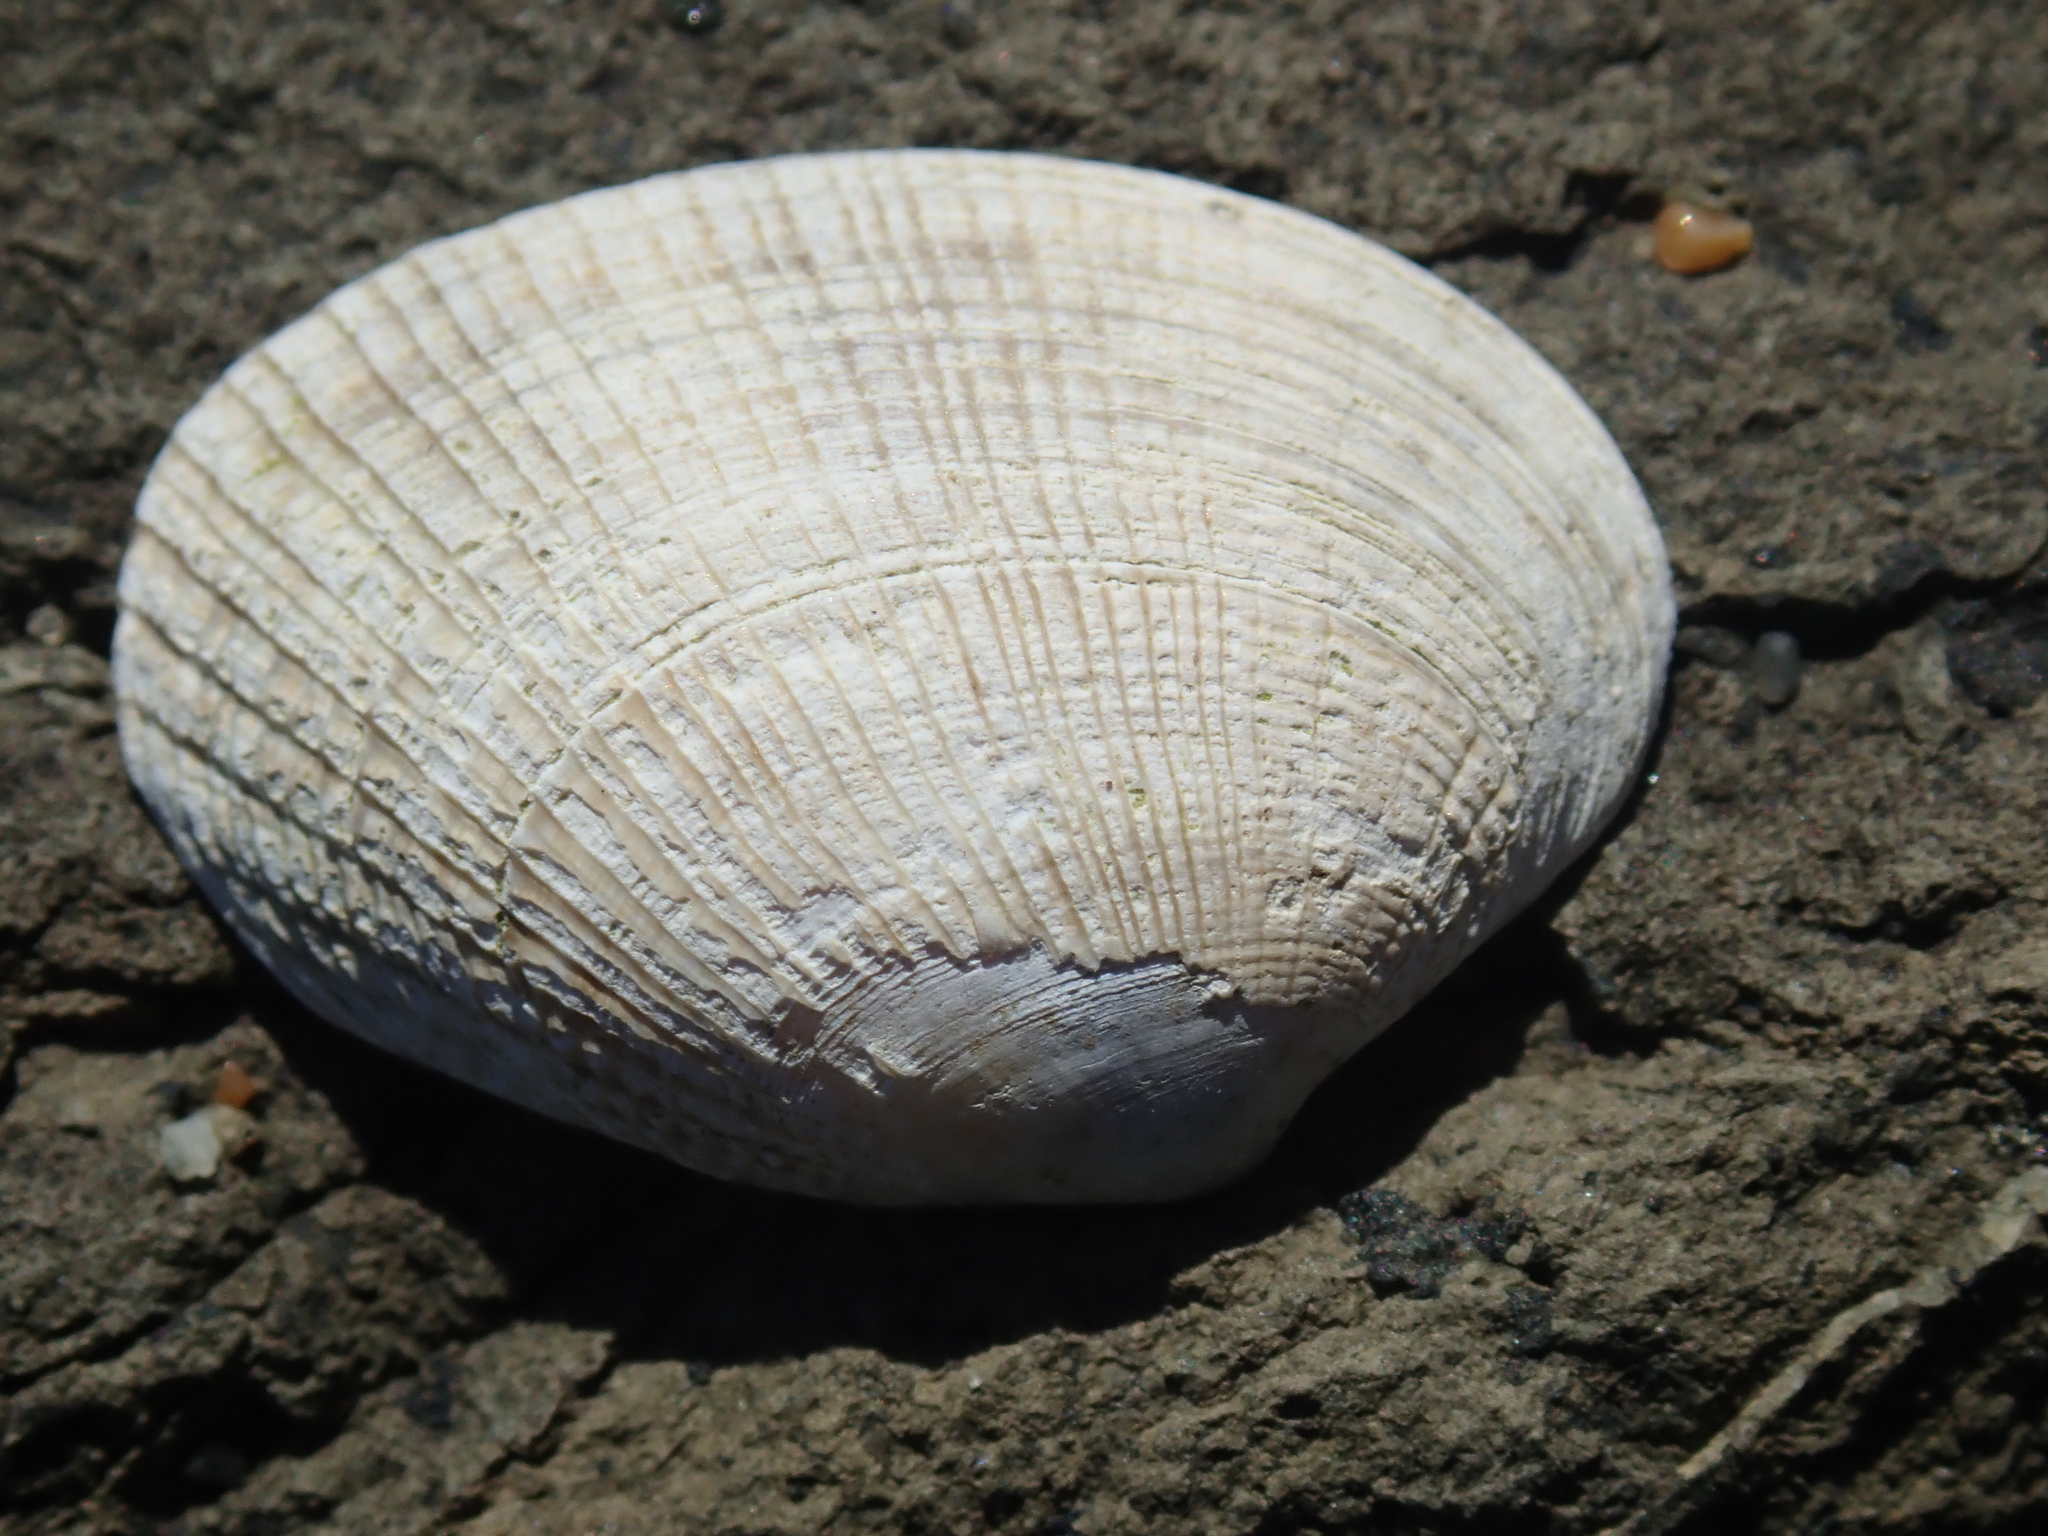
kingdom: Animalia
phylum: Mollusca
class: Bivalvia
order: Venerida
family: Veneridae
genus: Ruditapes
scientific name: Ruditapes philippinarum
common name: Manila clam
